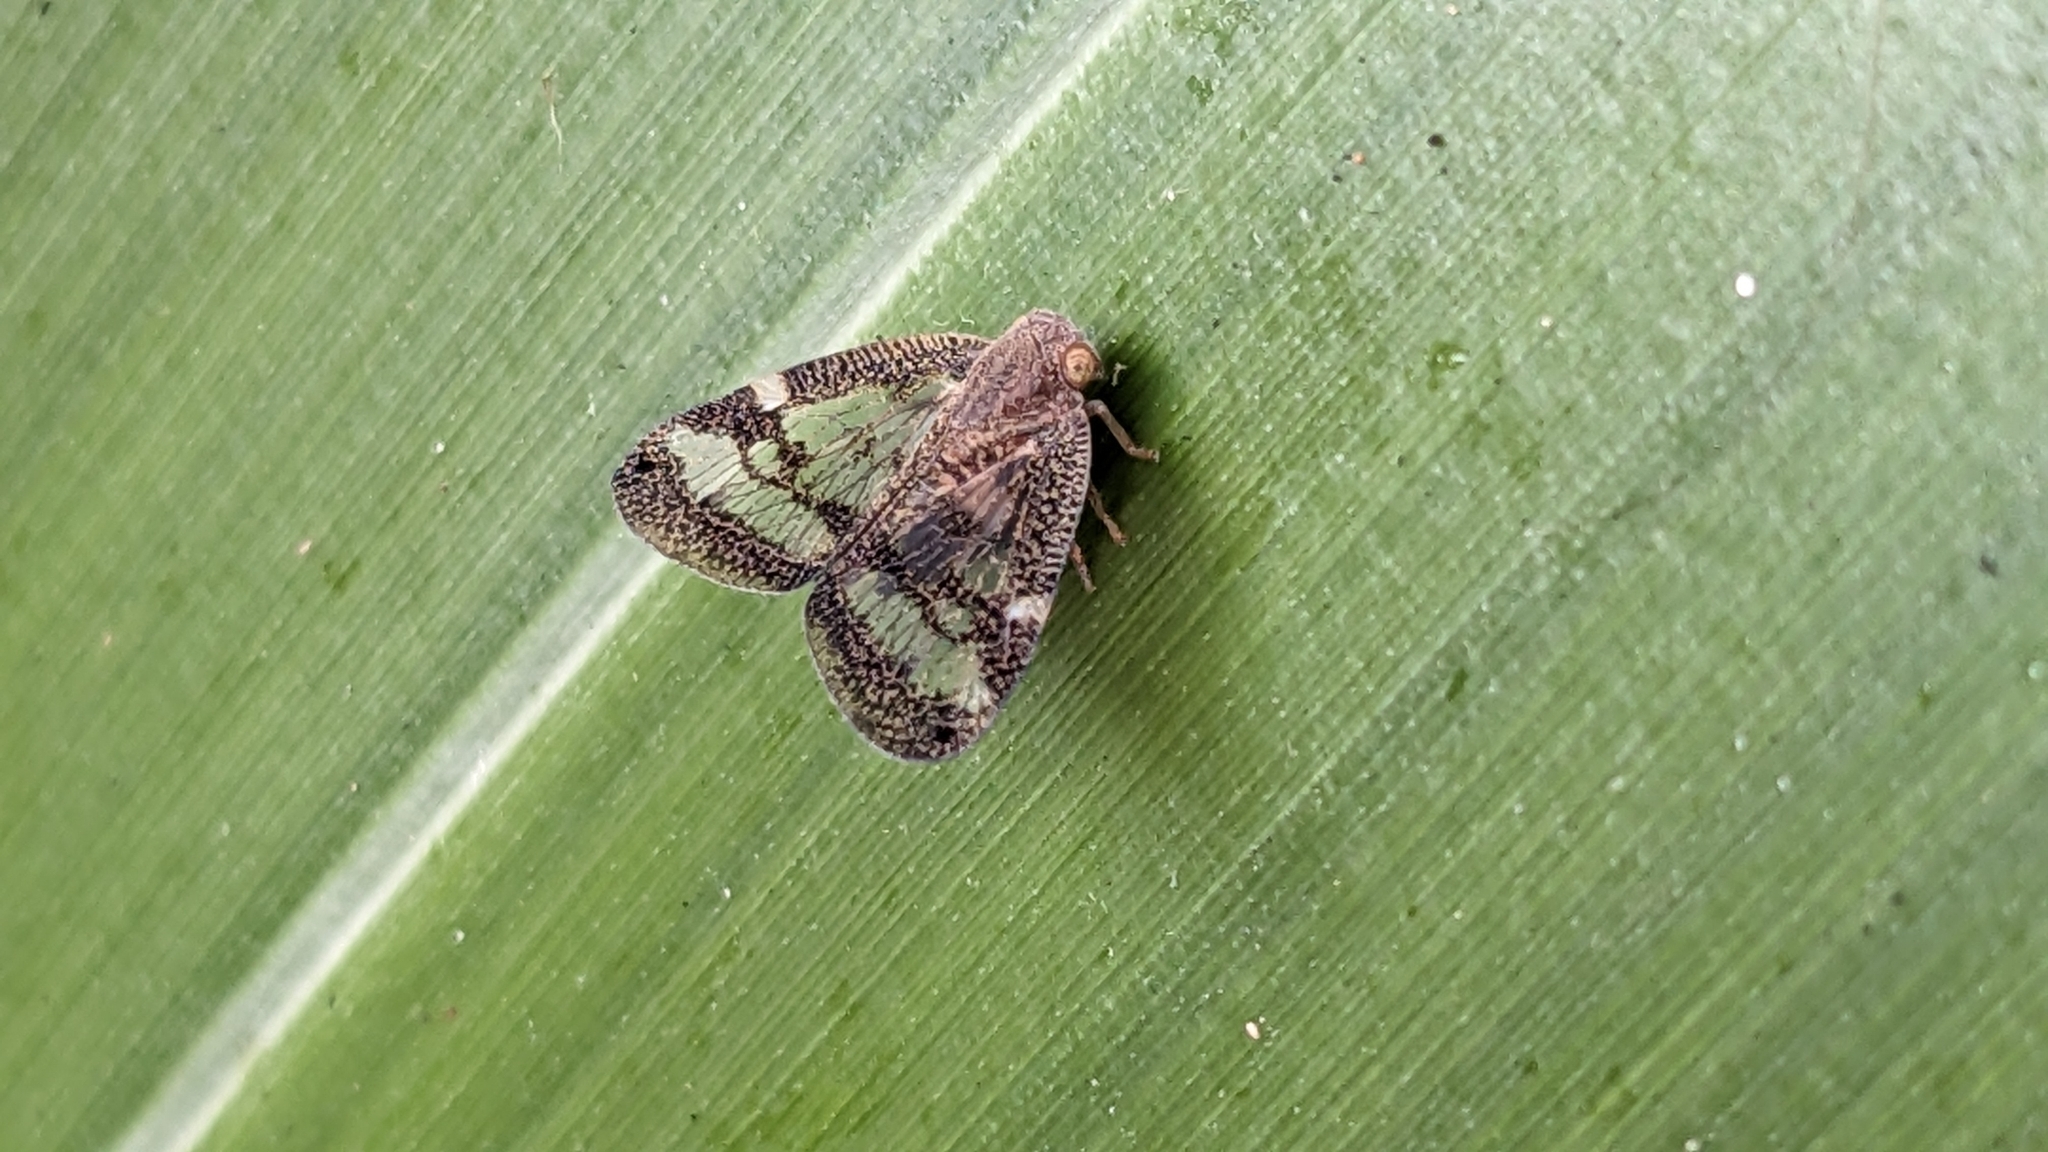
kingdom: Animalia
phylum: Arthropoda
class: Insecta
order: Hemiptera
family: Ricaniidae
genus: Scolypopa
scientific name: Scolypopa australis
